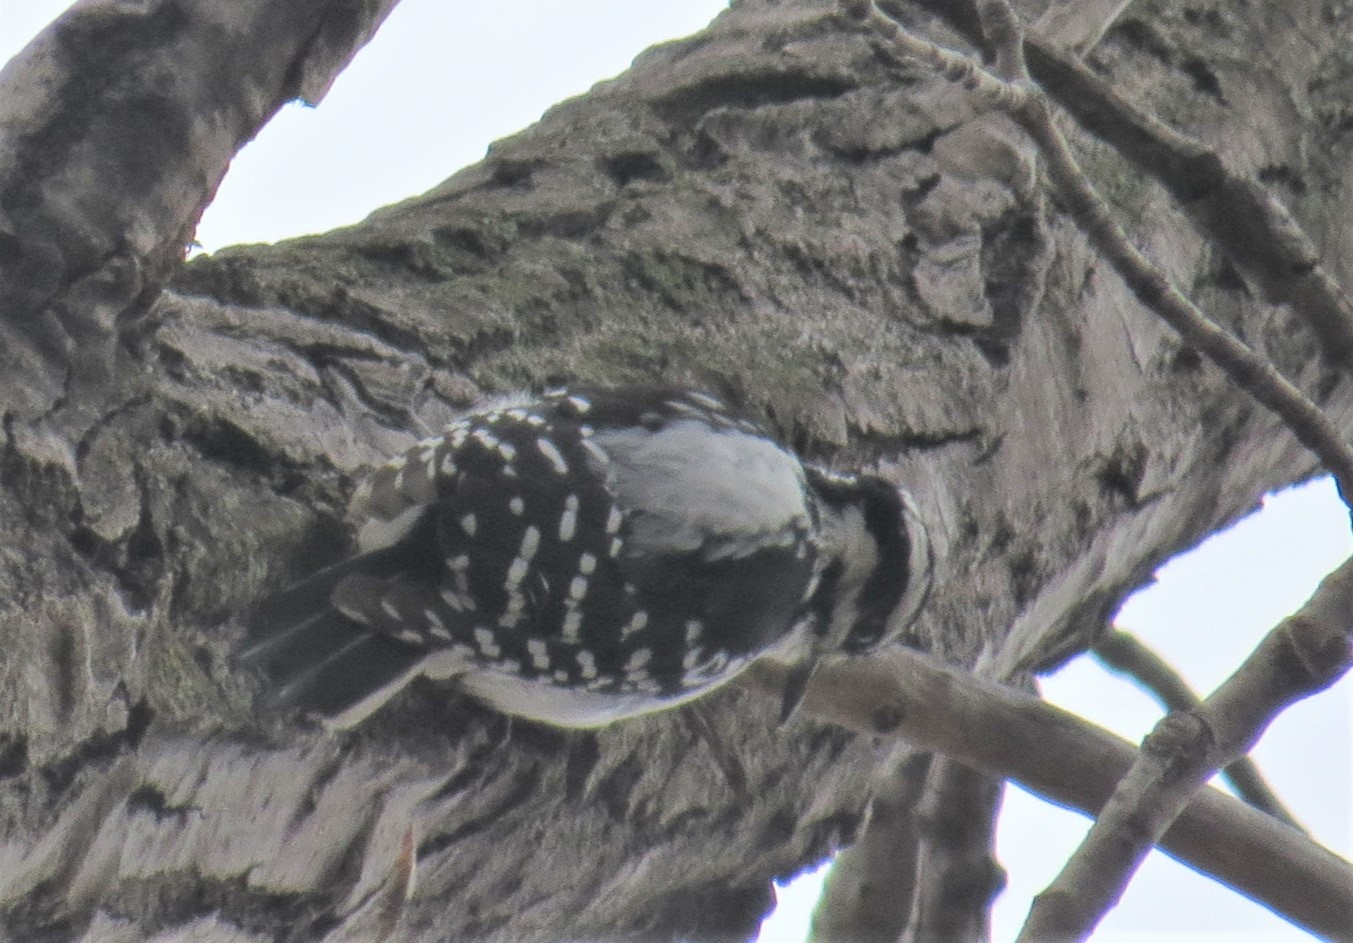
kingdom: Animalia
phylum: Chordata
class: Aves
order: Piciformes
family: Picidae
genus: Leuconotopicus
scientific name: Leuconotopicus villosus
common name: Hairy woodpecker
